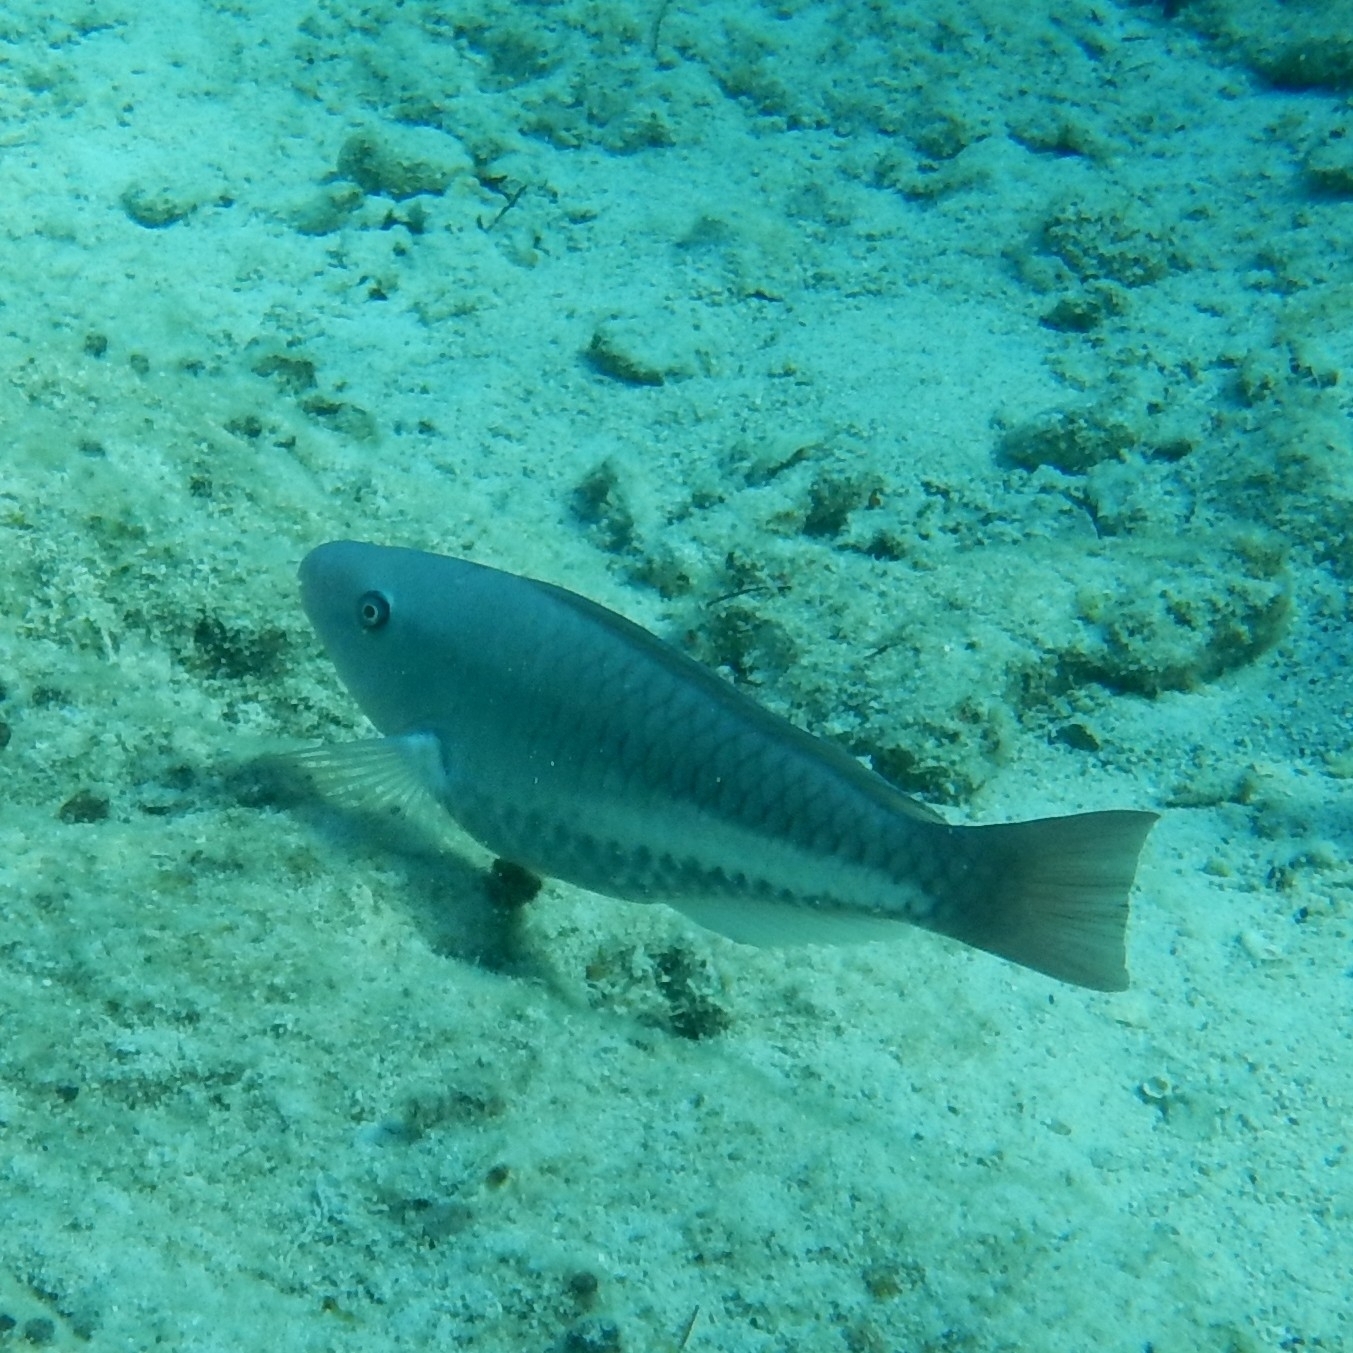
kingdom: Animalia
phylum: Chordata
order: Perciformes
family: Scaridae
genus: Scarus
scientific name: Scarus vetula
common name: Queen parrotfish
